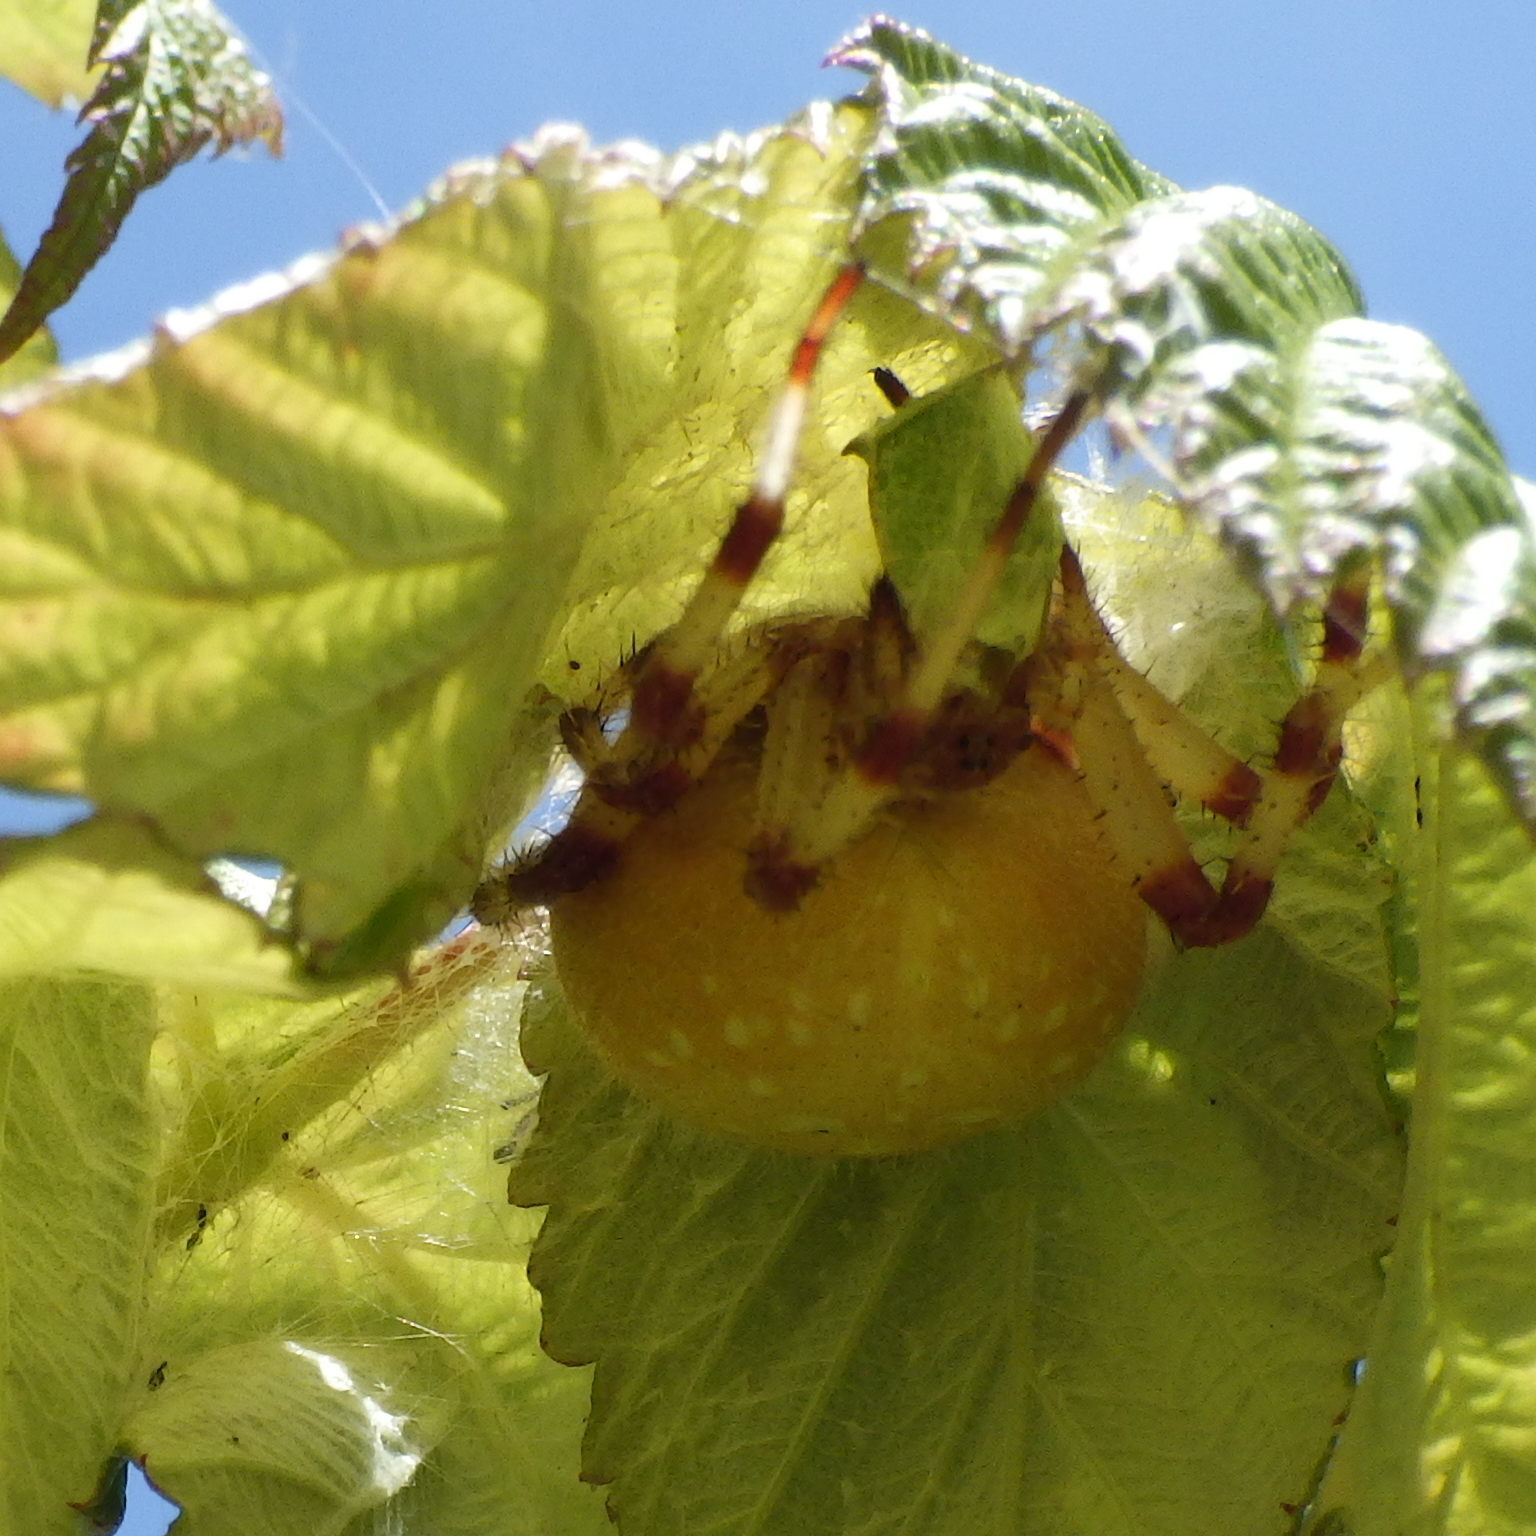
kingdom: Animalia
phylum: Arthropoda
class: Arachnida
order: Araneae
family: Araneidae
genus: Araneus
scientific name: Araneus trifolium
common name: Shamrock orbweaver
